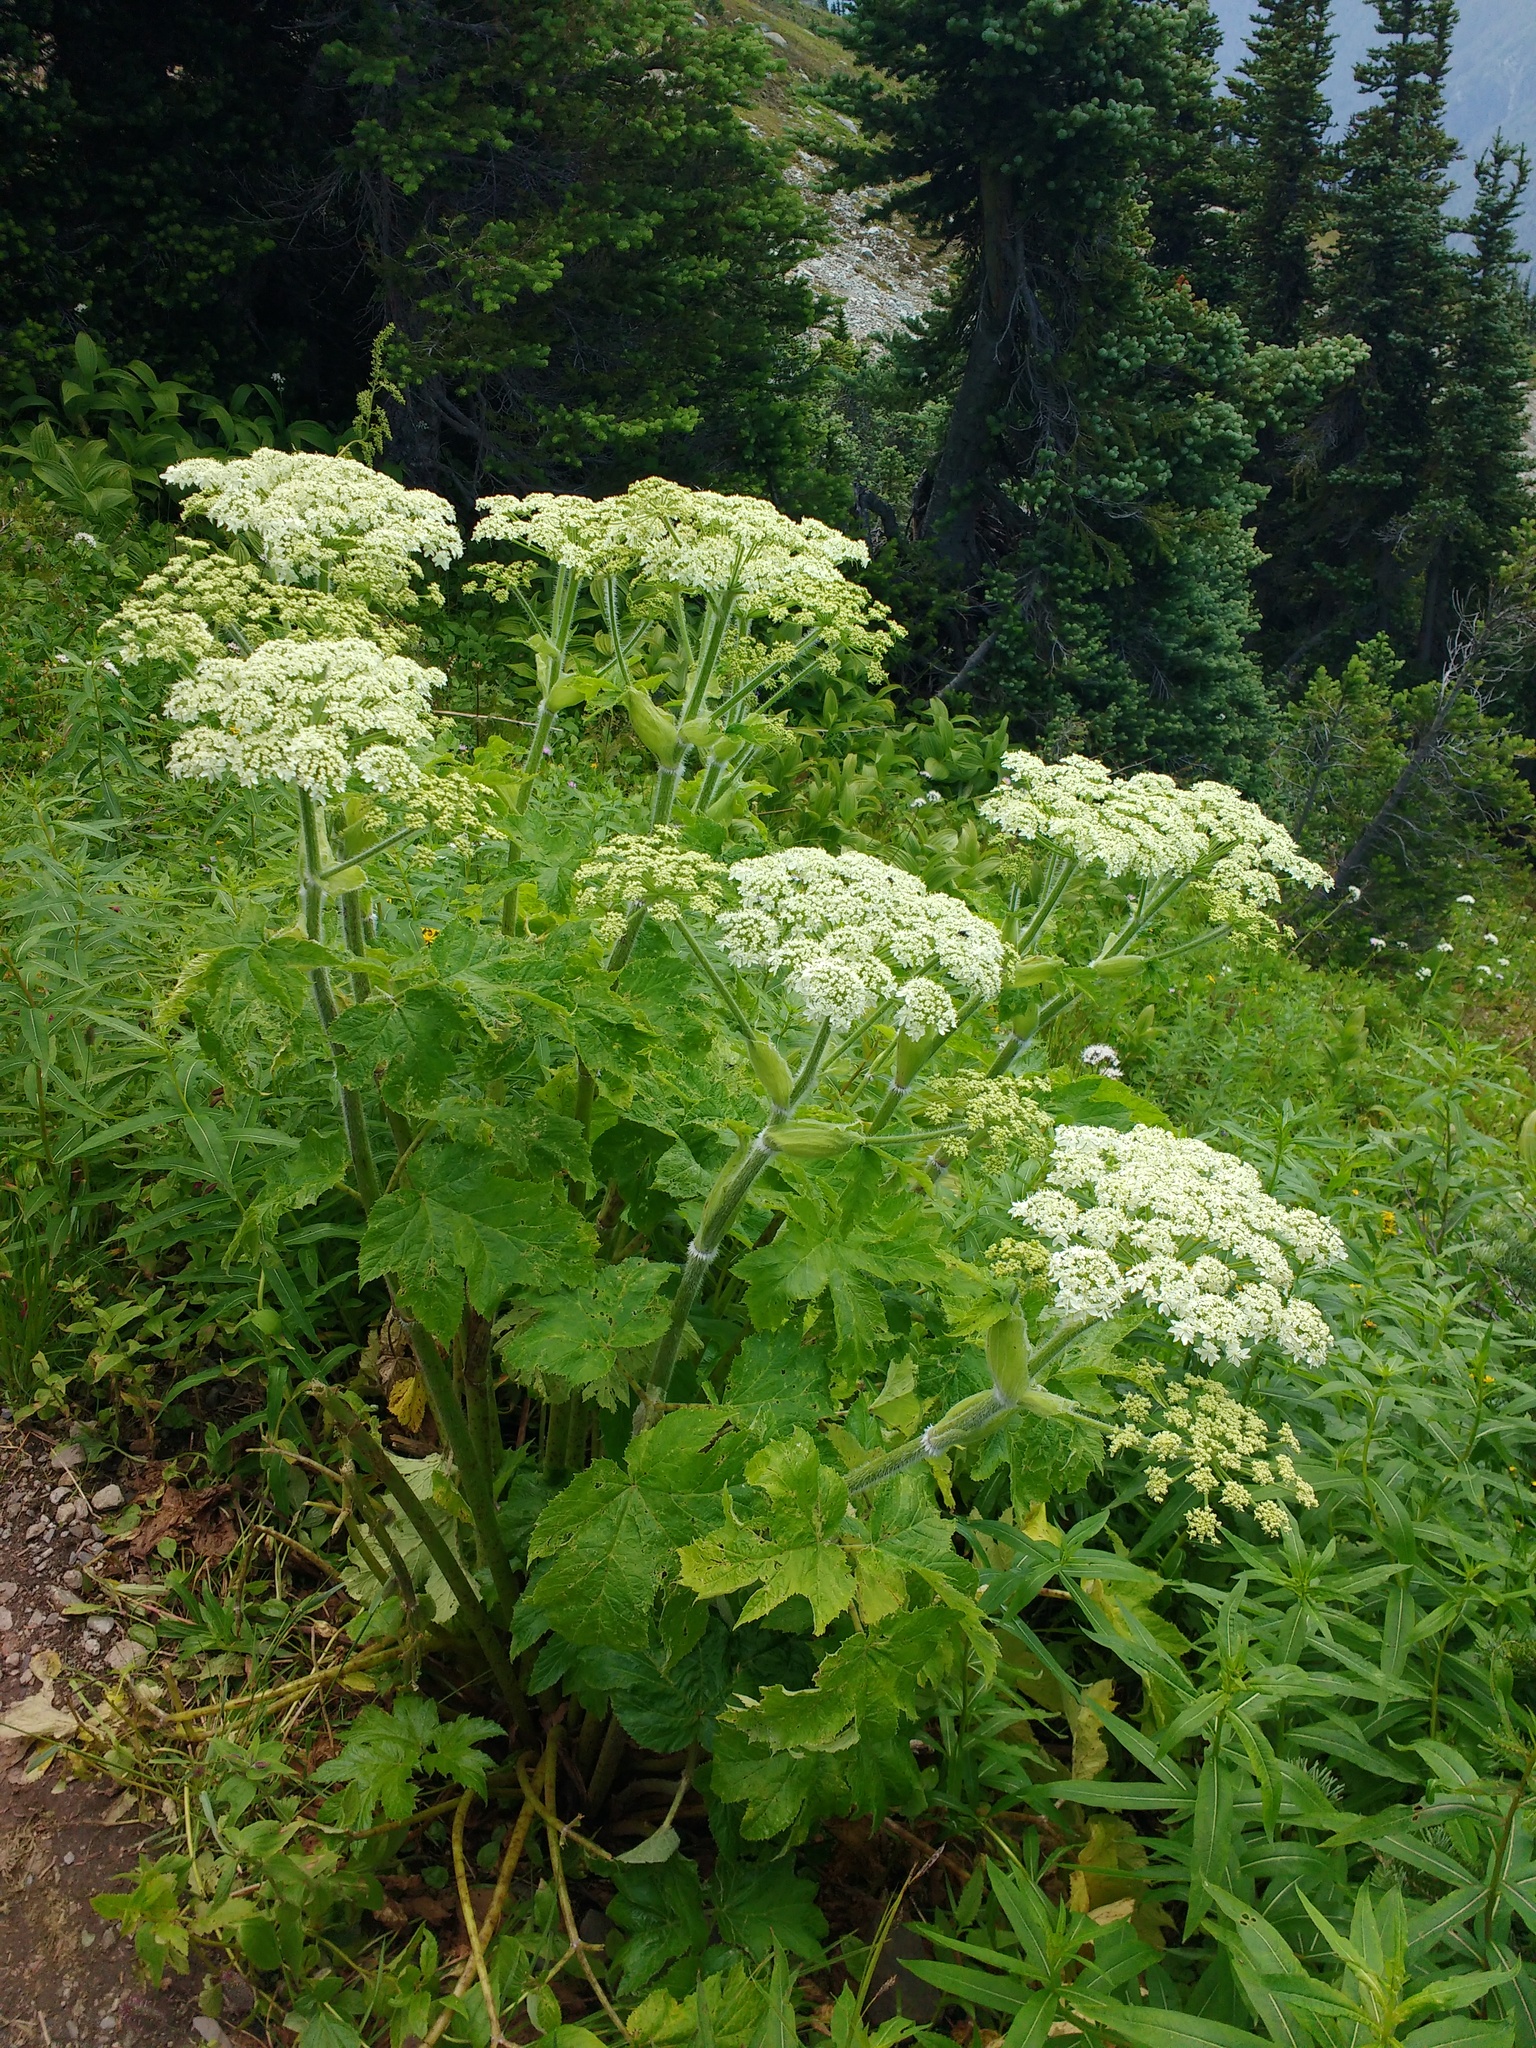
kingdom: Plantae
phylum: Tracheophyta
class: Magnoliopsida
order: Apiales
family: Apiaceae
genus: Heracleum
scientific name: Heracleum maximum
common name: American cow parsnip
